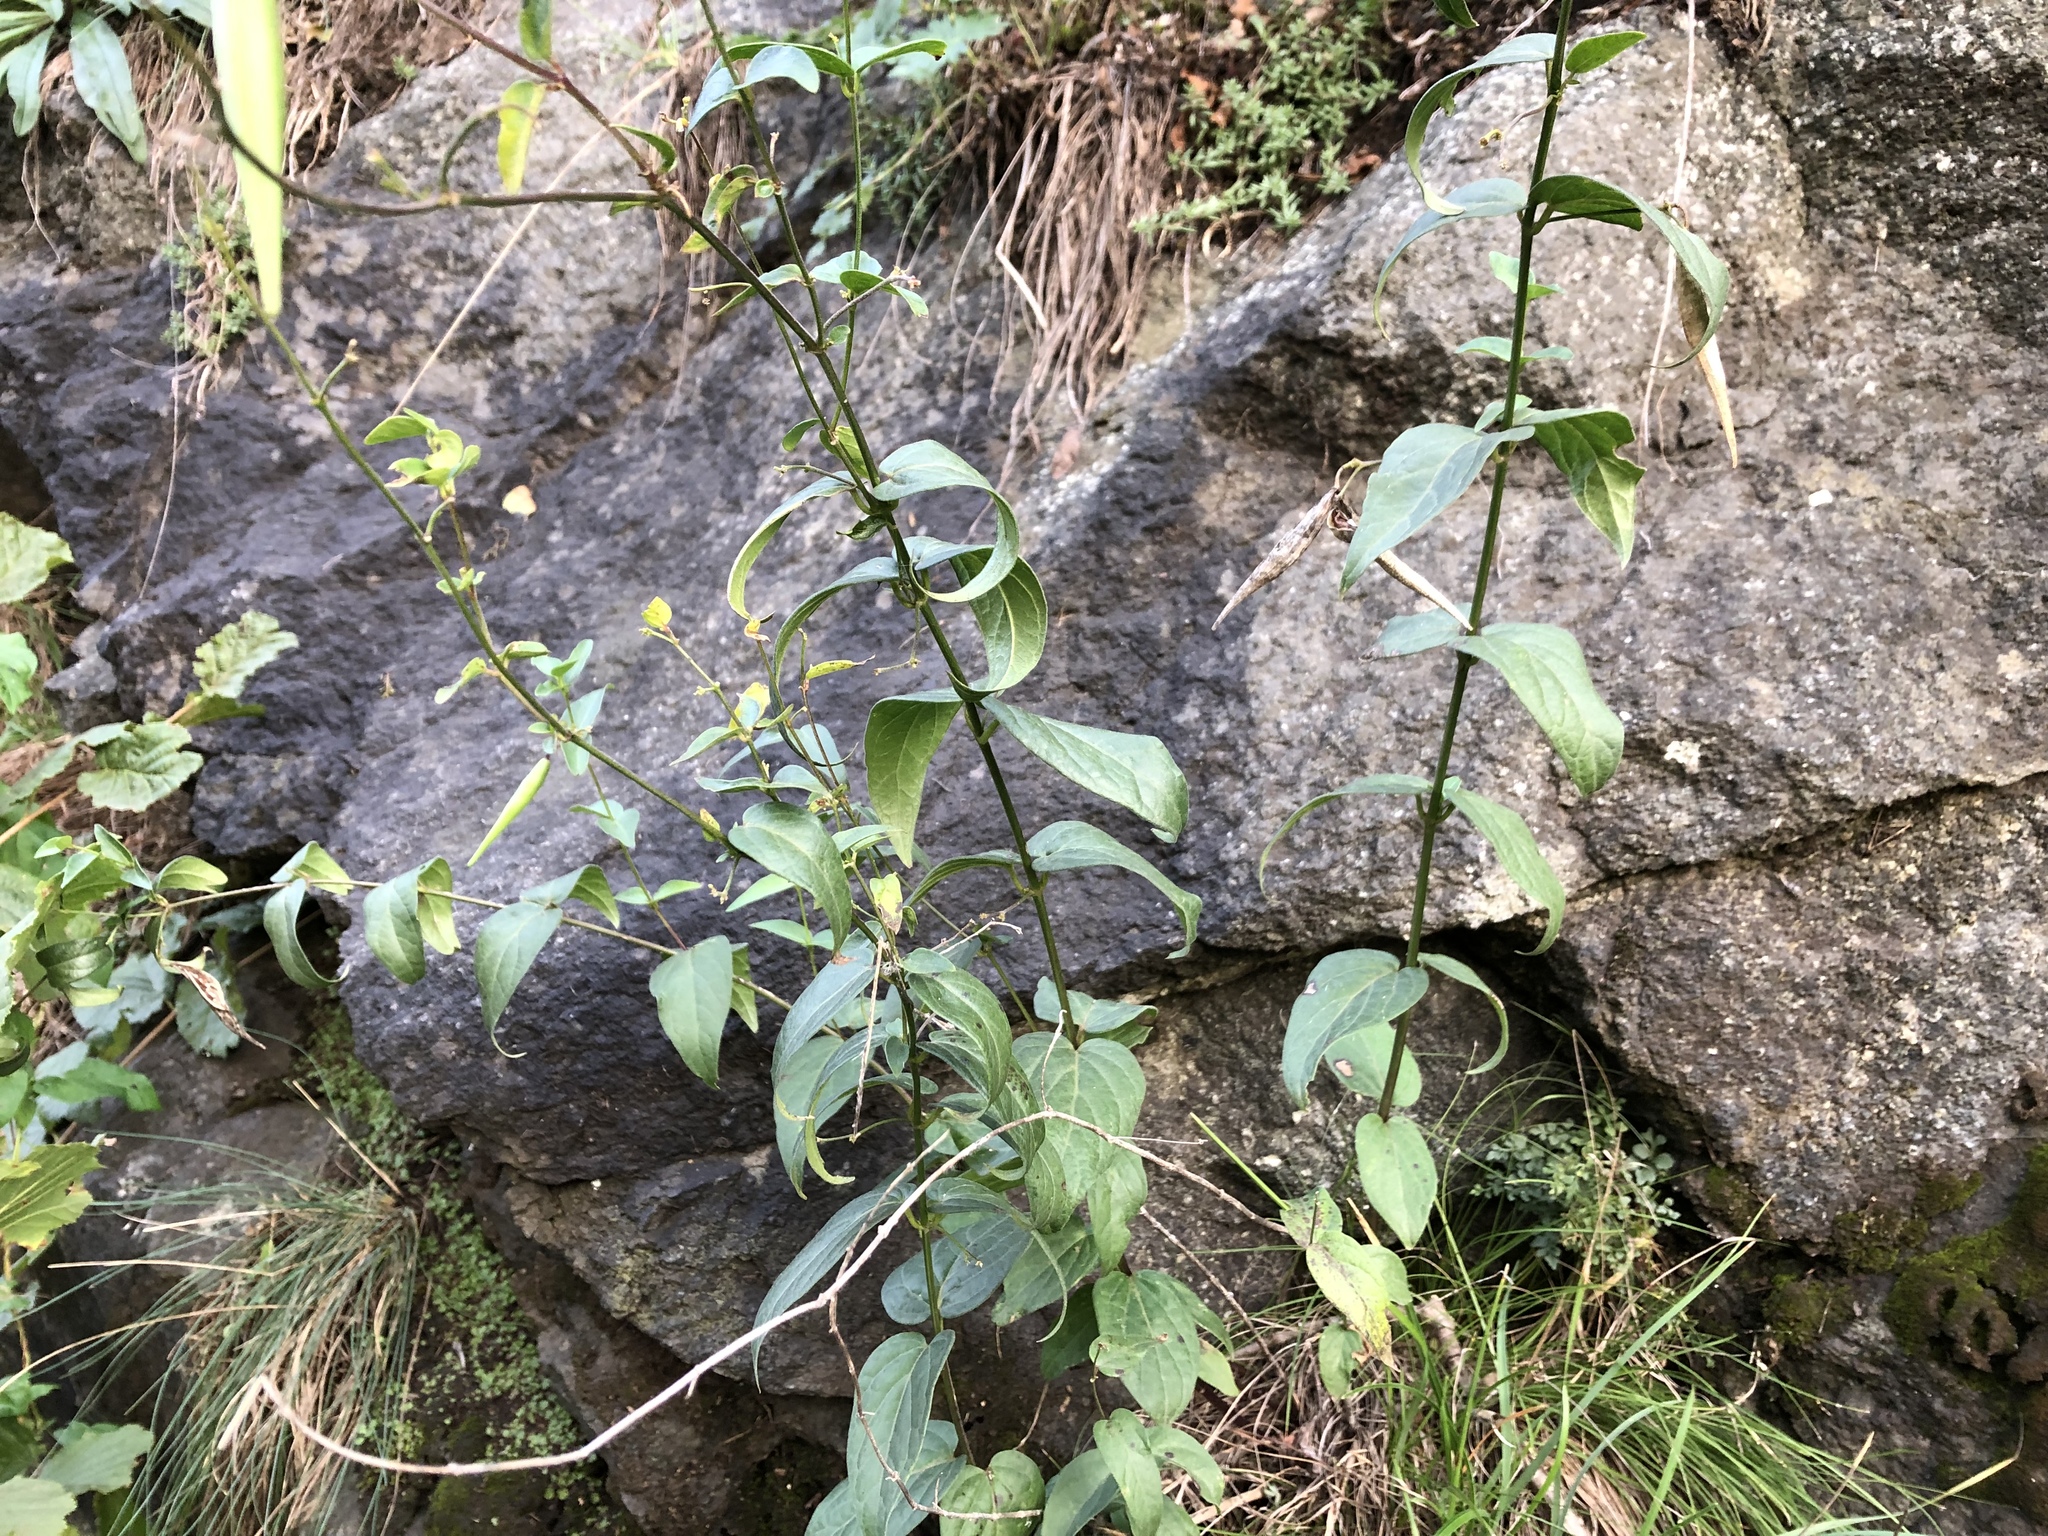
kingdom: Plantae
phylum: Tracheophyta
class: Magnoliopsida
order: Gentianales
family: Apocynaceae
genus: Vincetoxicum
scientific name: Vincetoxicum hirundinaria
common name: White swallowwort
